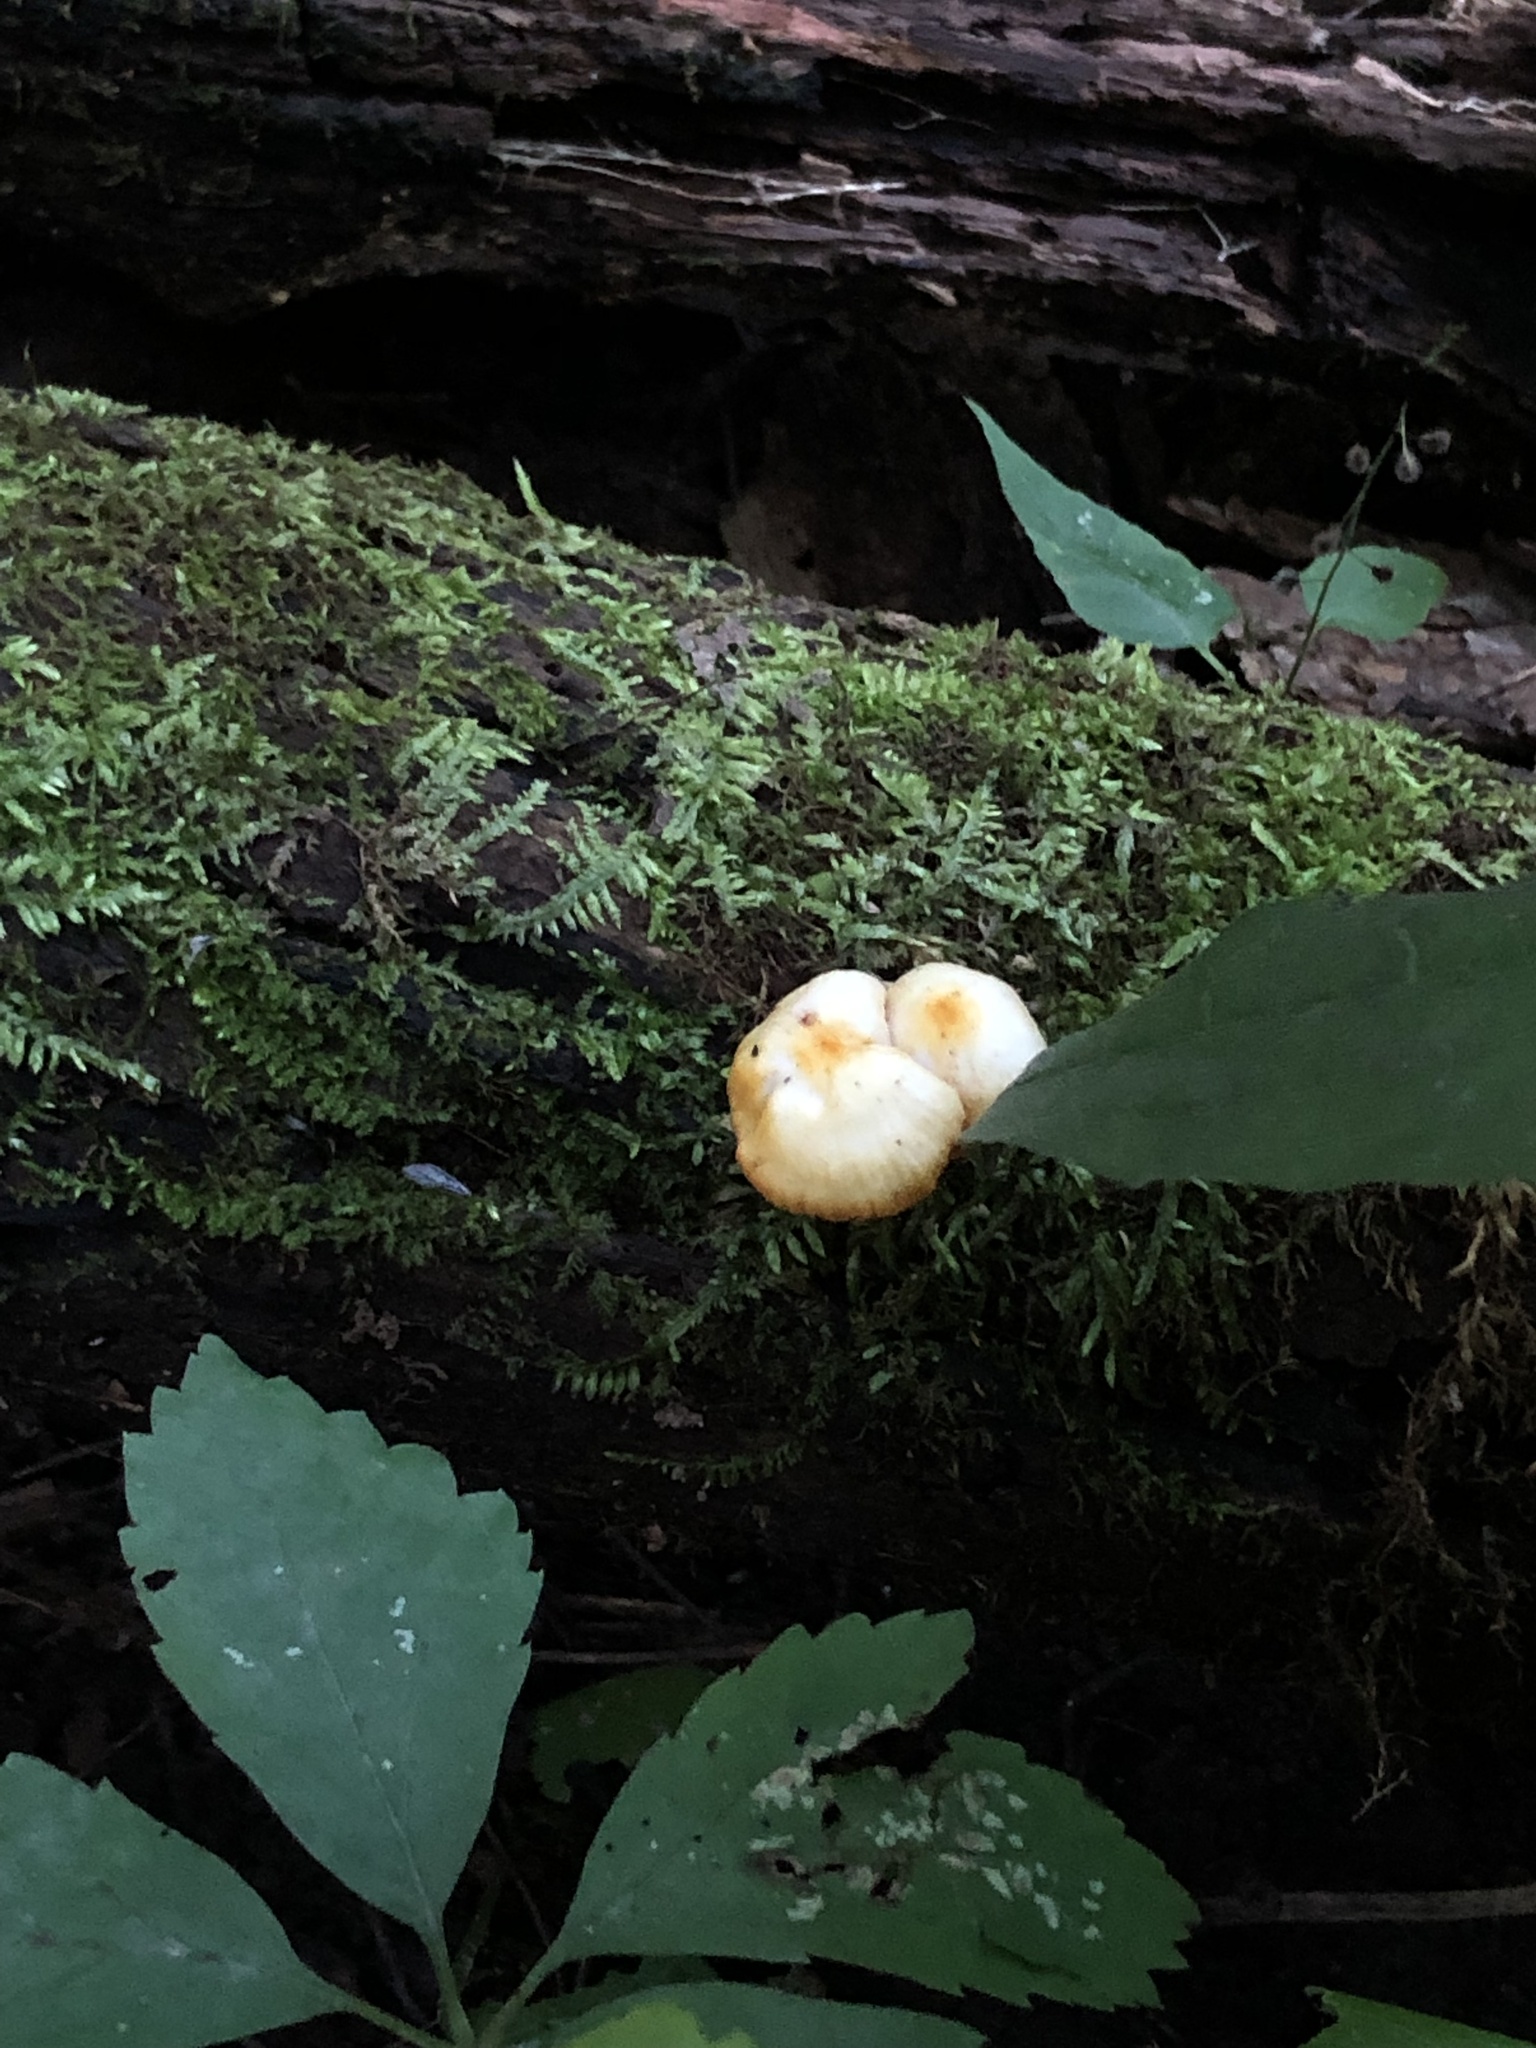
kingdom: Fungi
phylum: Basidiomycota
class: Agaricomycetes
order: Agaricales
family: Mycenaceae
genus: Mycena
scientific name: Mycena leaiana
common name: Orange mycena
